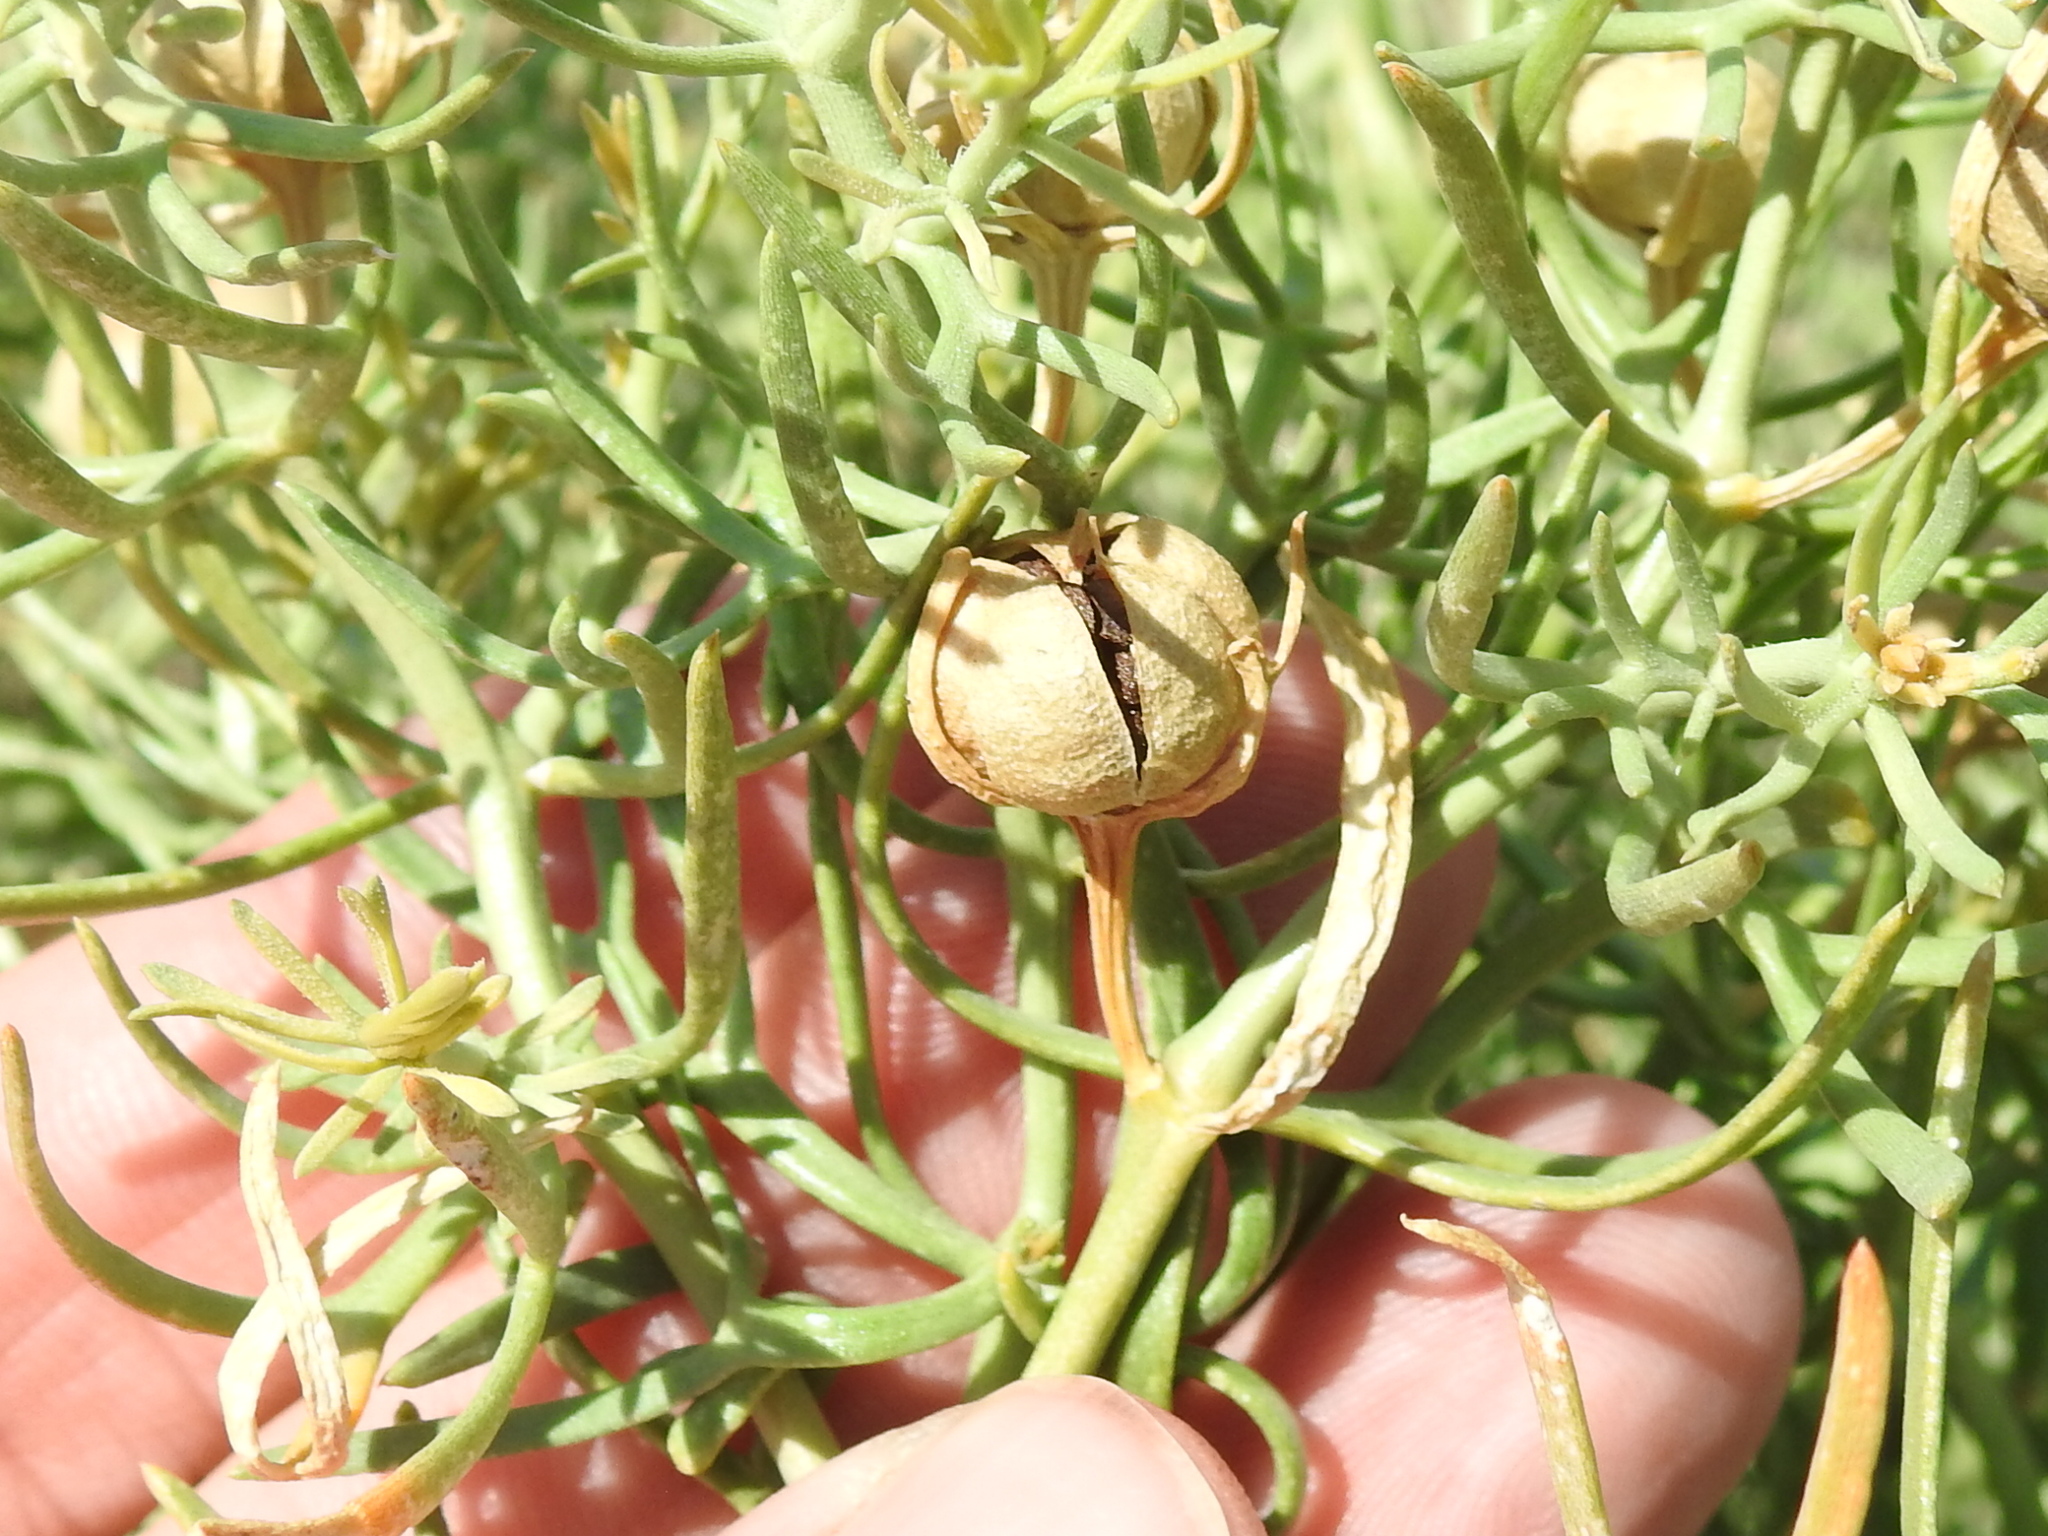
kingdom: Plantae
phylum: Tracheophyta
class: Magnoliopsida
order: Sapindales
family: Tetradiclidaceae
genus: Peganum
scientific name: Peganum harmala
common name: Harmal peganum
